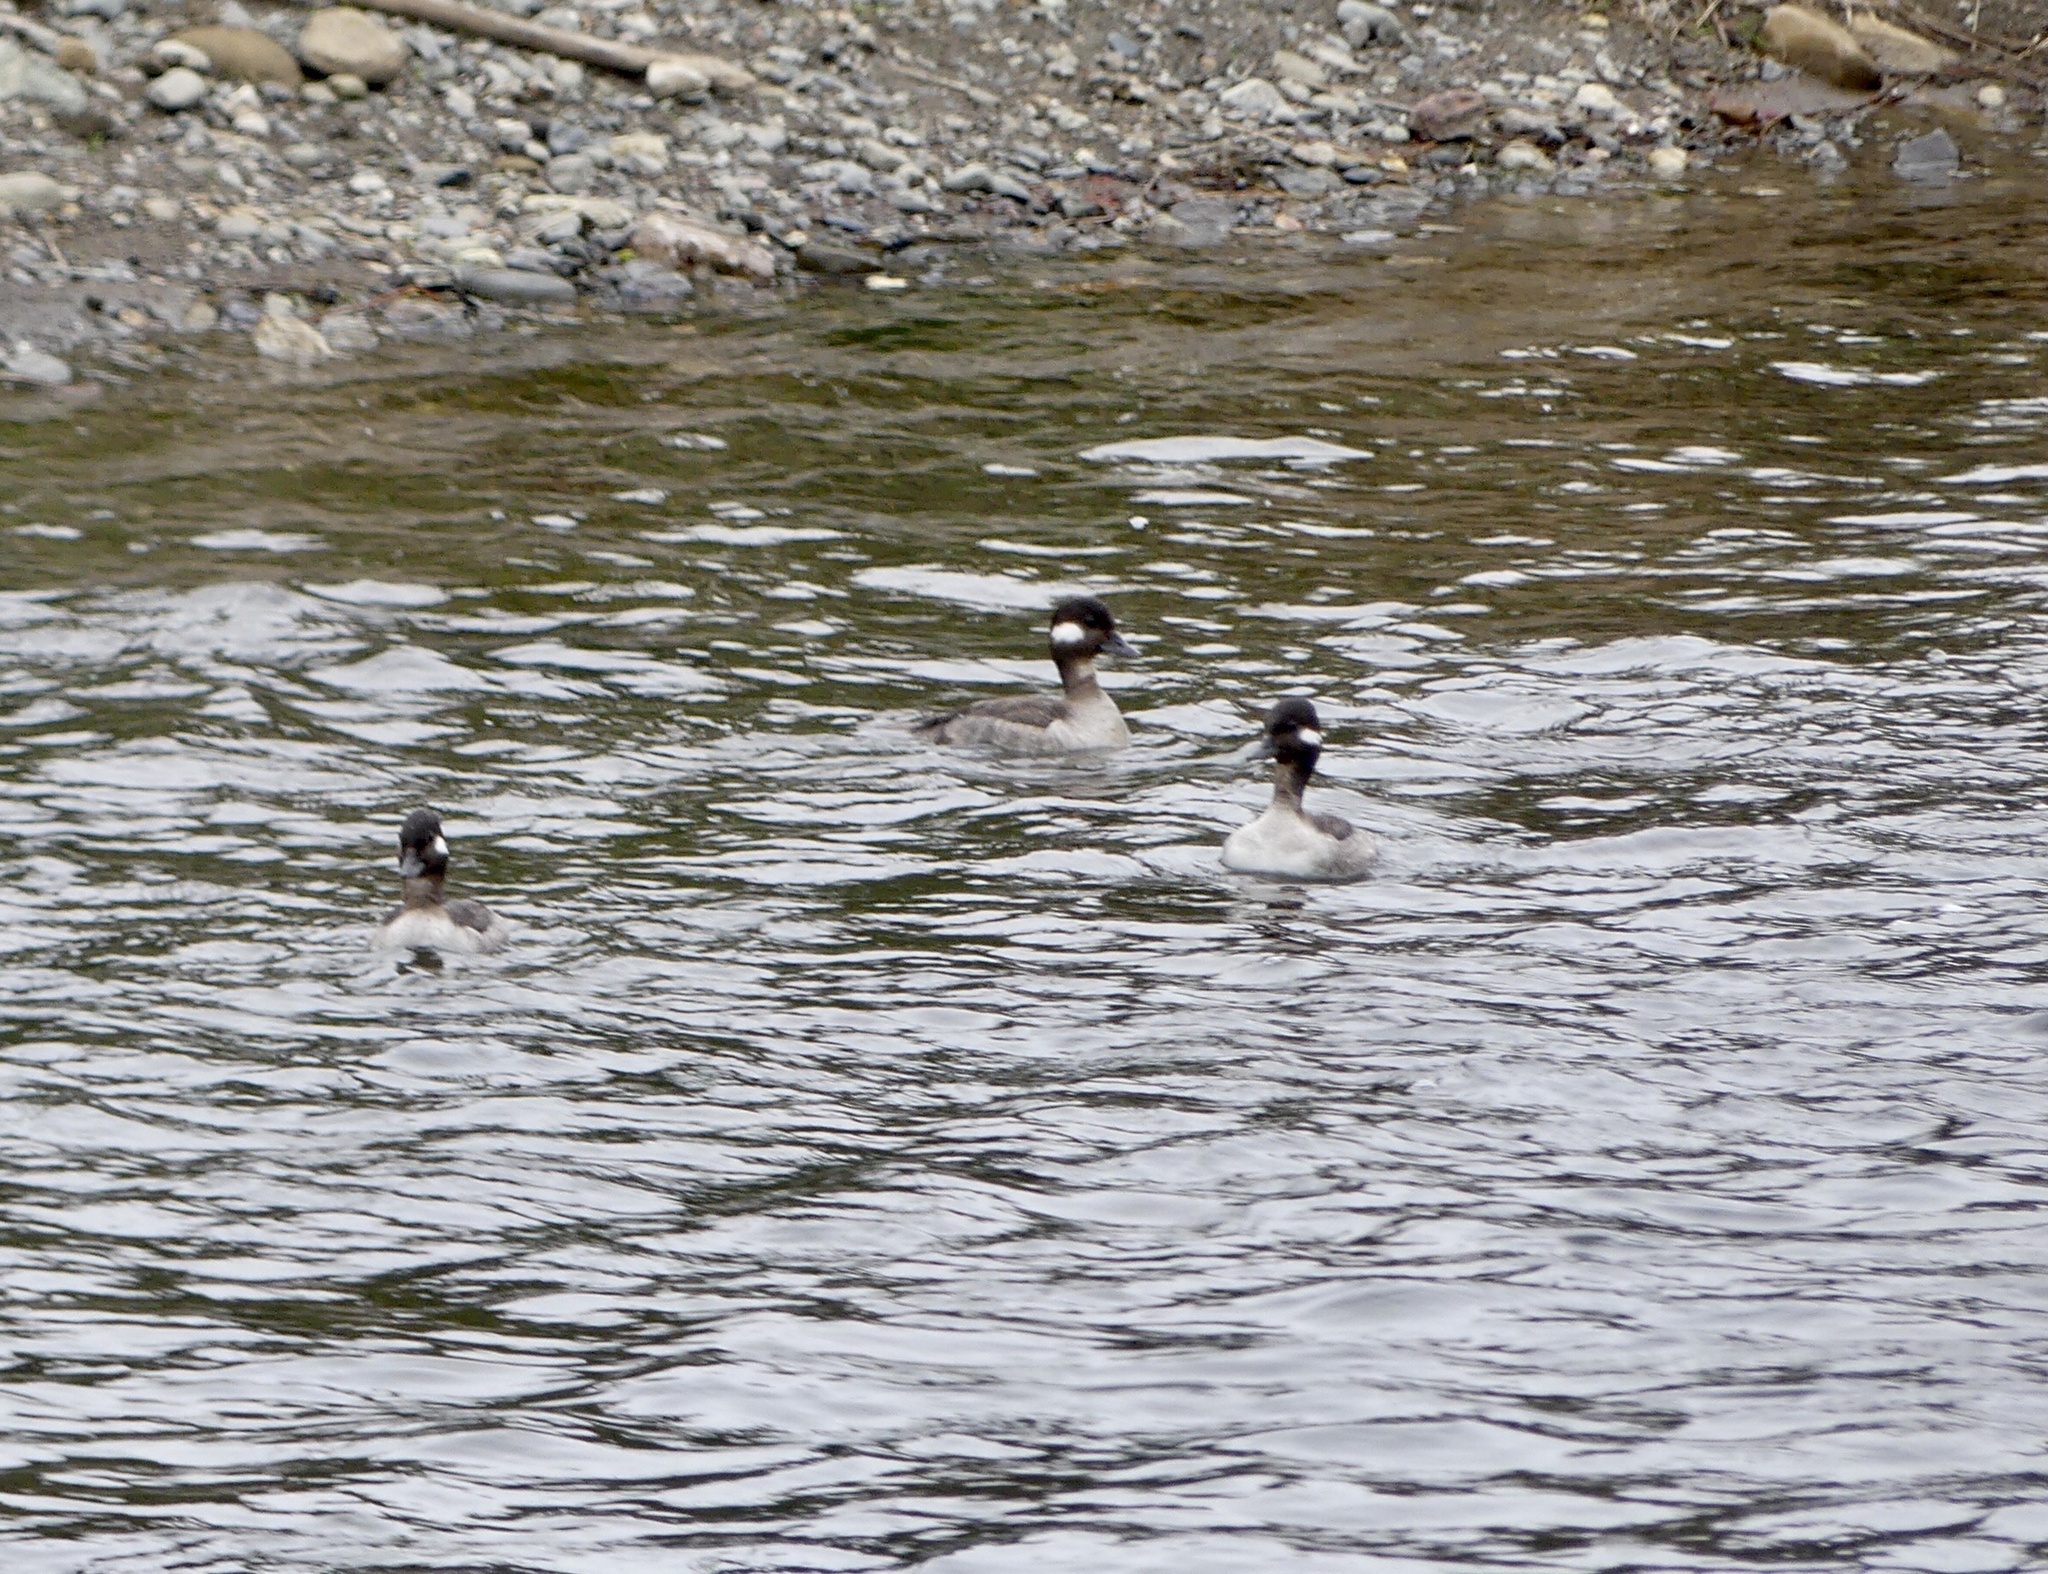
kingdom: Animalia
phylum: Chordata
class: Aves
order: Anseriformes
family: Anatidae
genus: Bucephala
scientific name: Bucephala albeola
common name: Bufflehead
